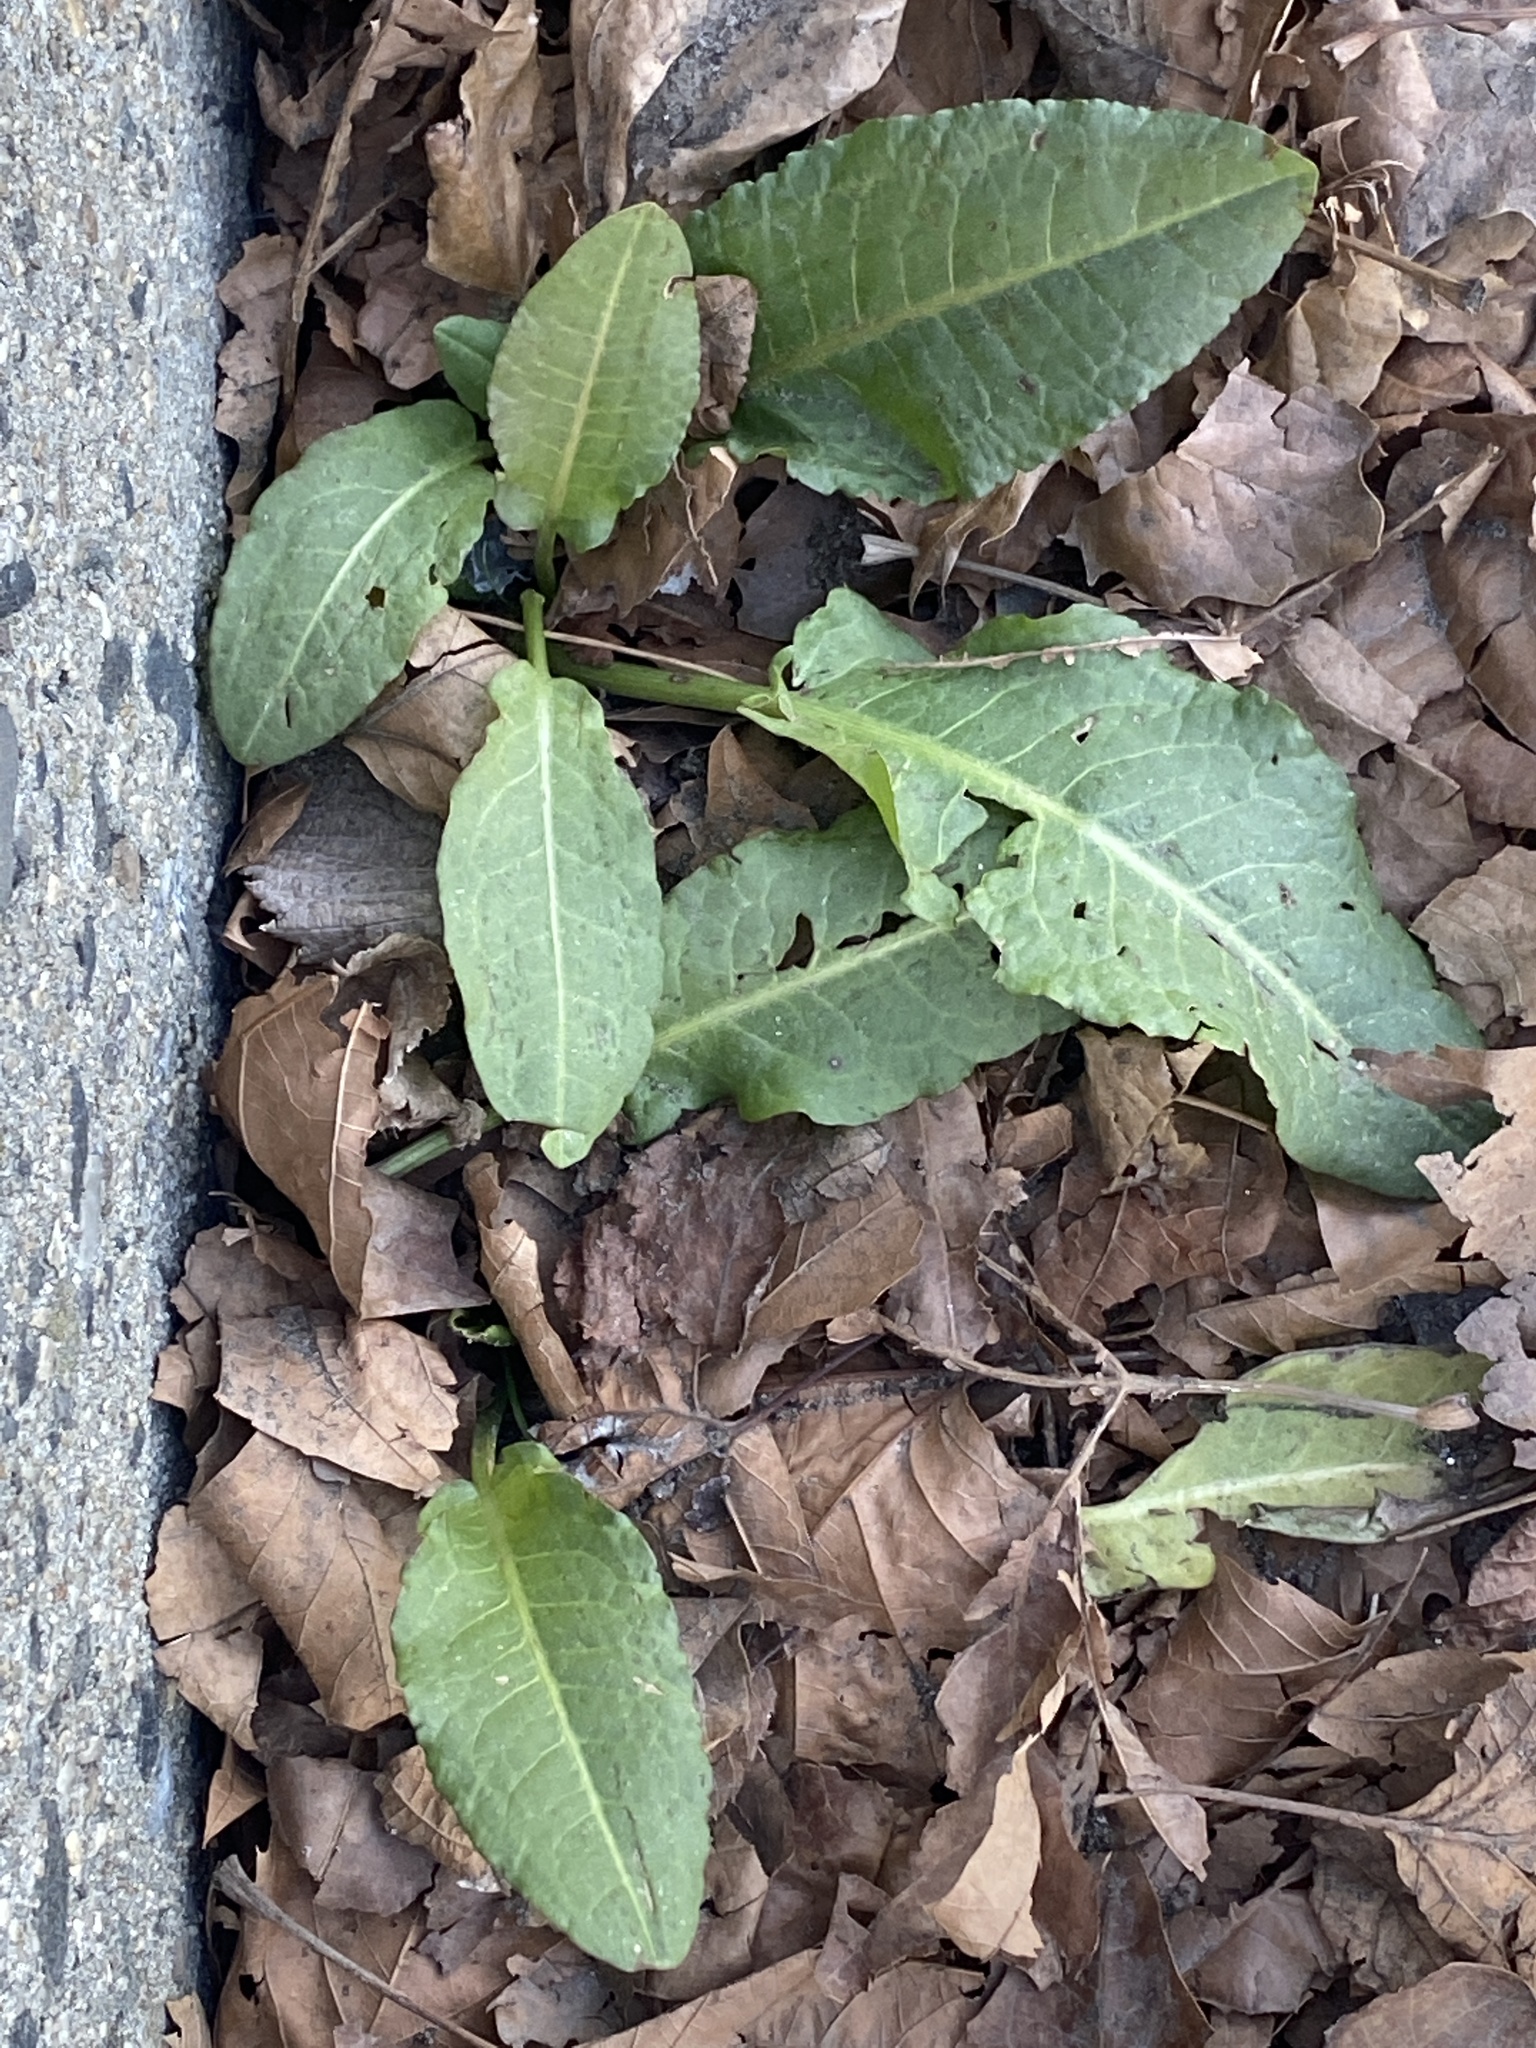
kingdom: Plantae
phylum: Tracheophyta
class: Magnoliopsida
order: Caryophyllales
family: Polygonaceae
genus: Rumex
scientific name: Rumex obtusifolius
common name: Bitter dock
